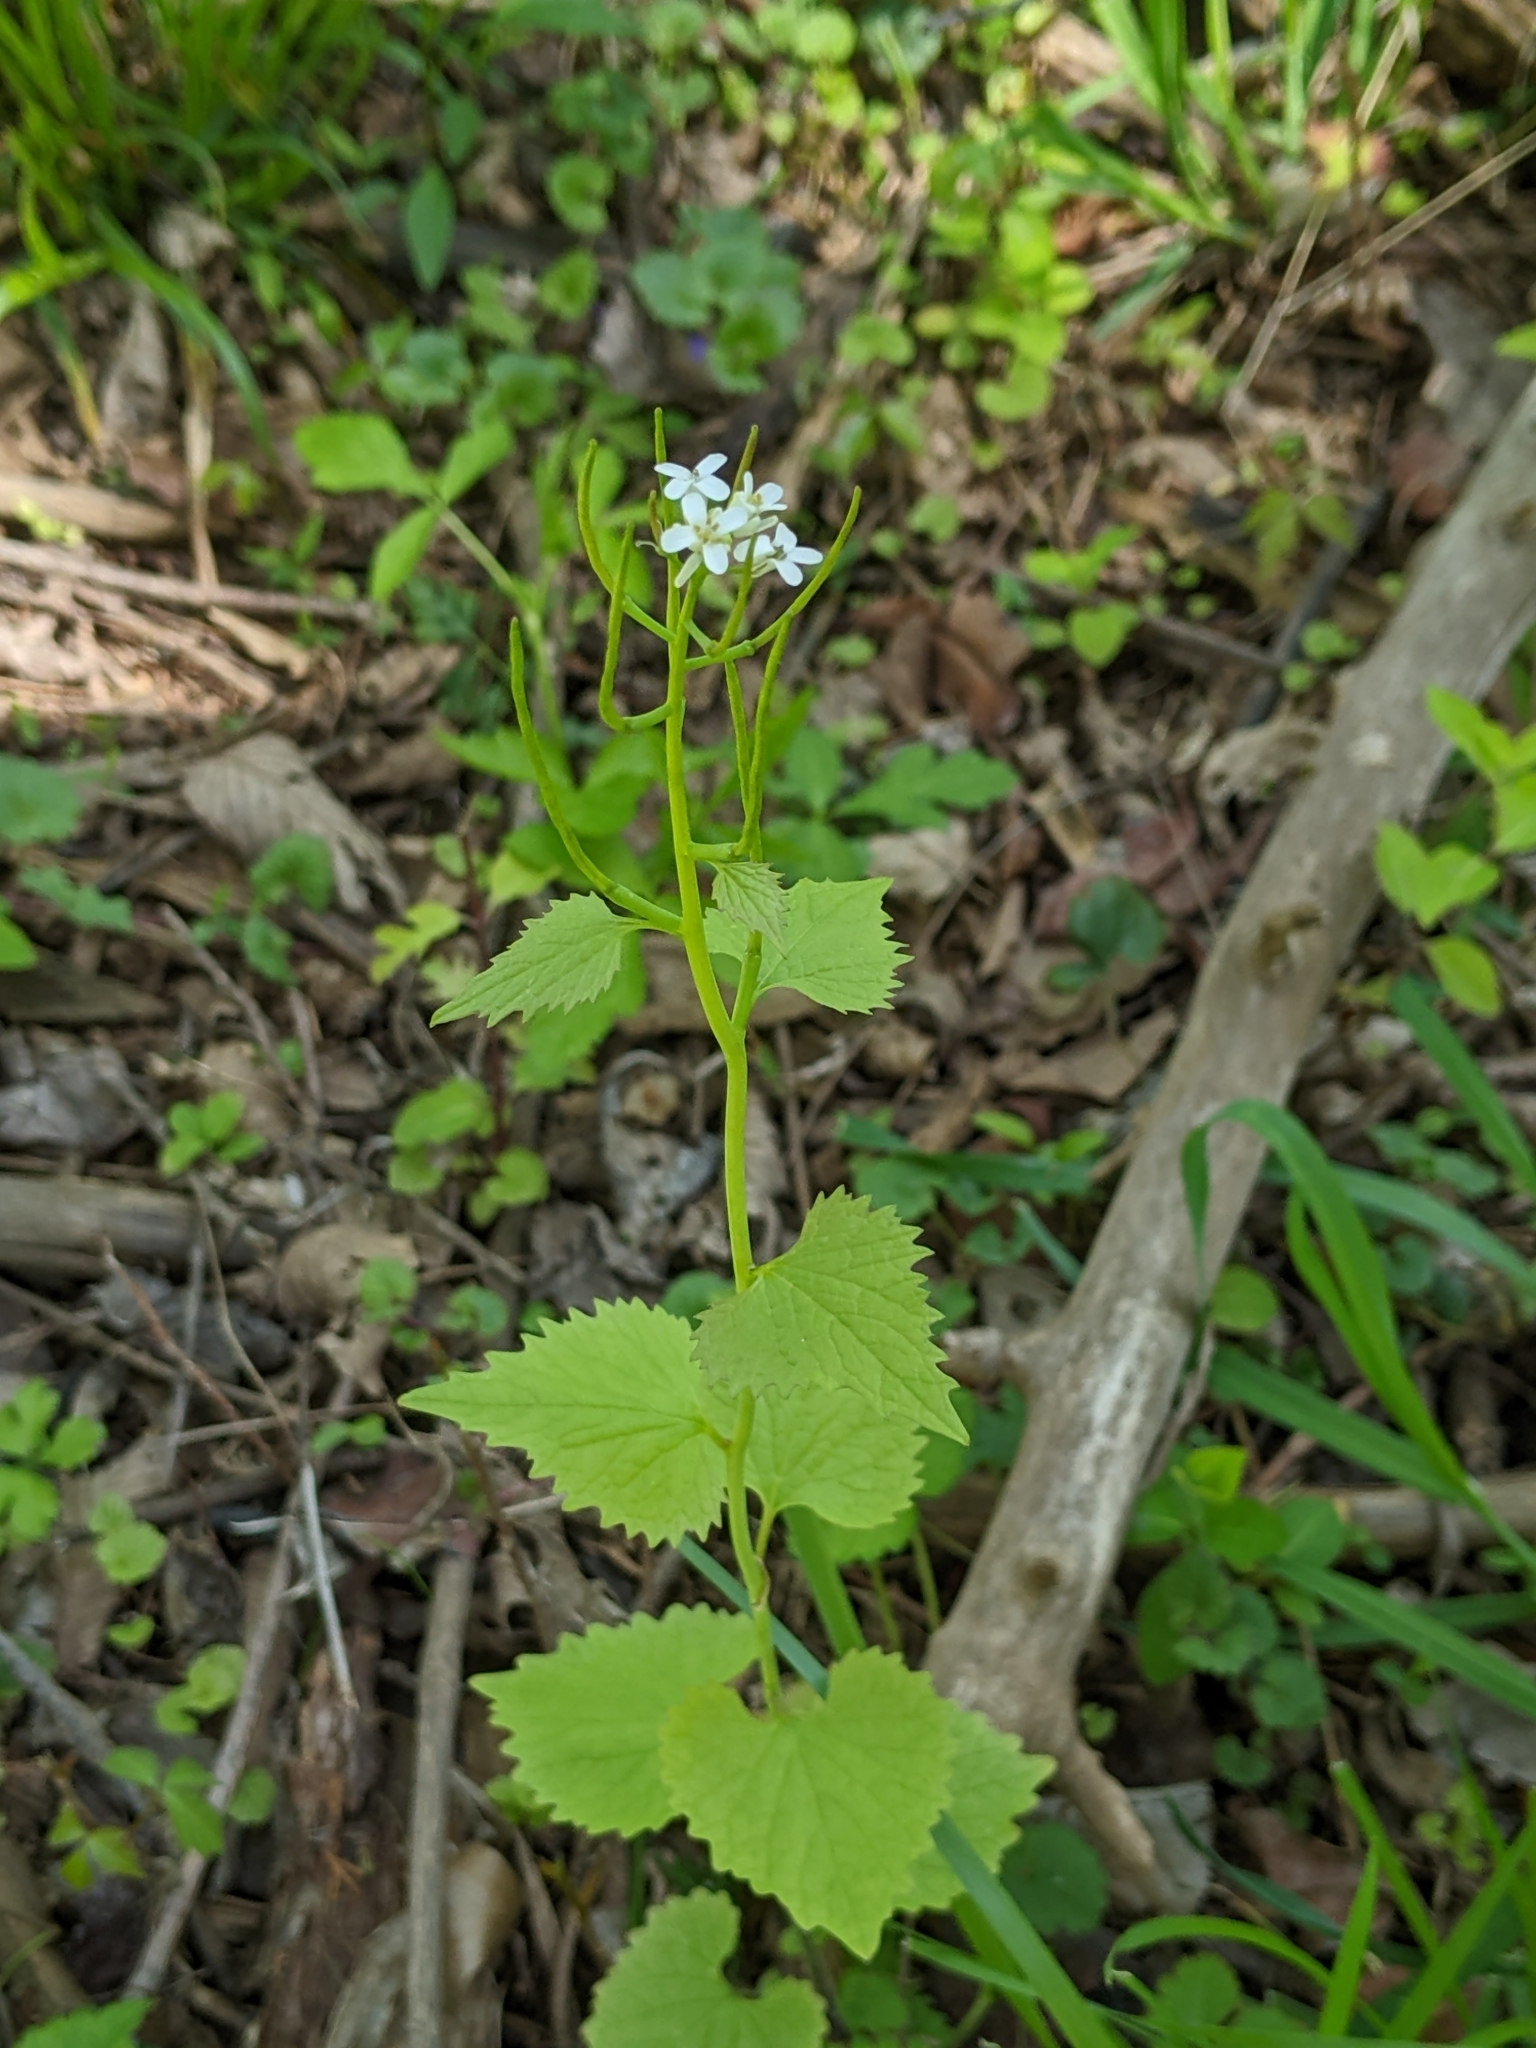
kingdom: Plantae
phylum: Tracheophyta
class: Magnoliopsida
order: Brassicales
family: Brassicaceae
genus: Alliaria
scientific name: Alliaria petiolata
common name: Garlic mustard
